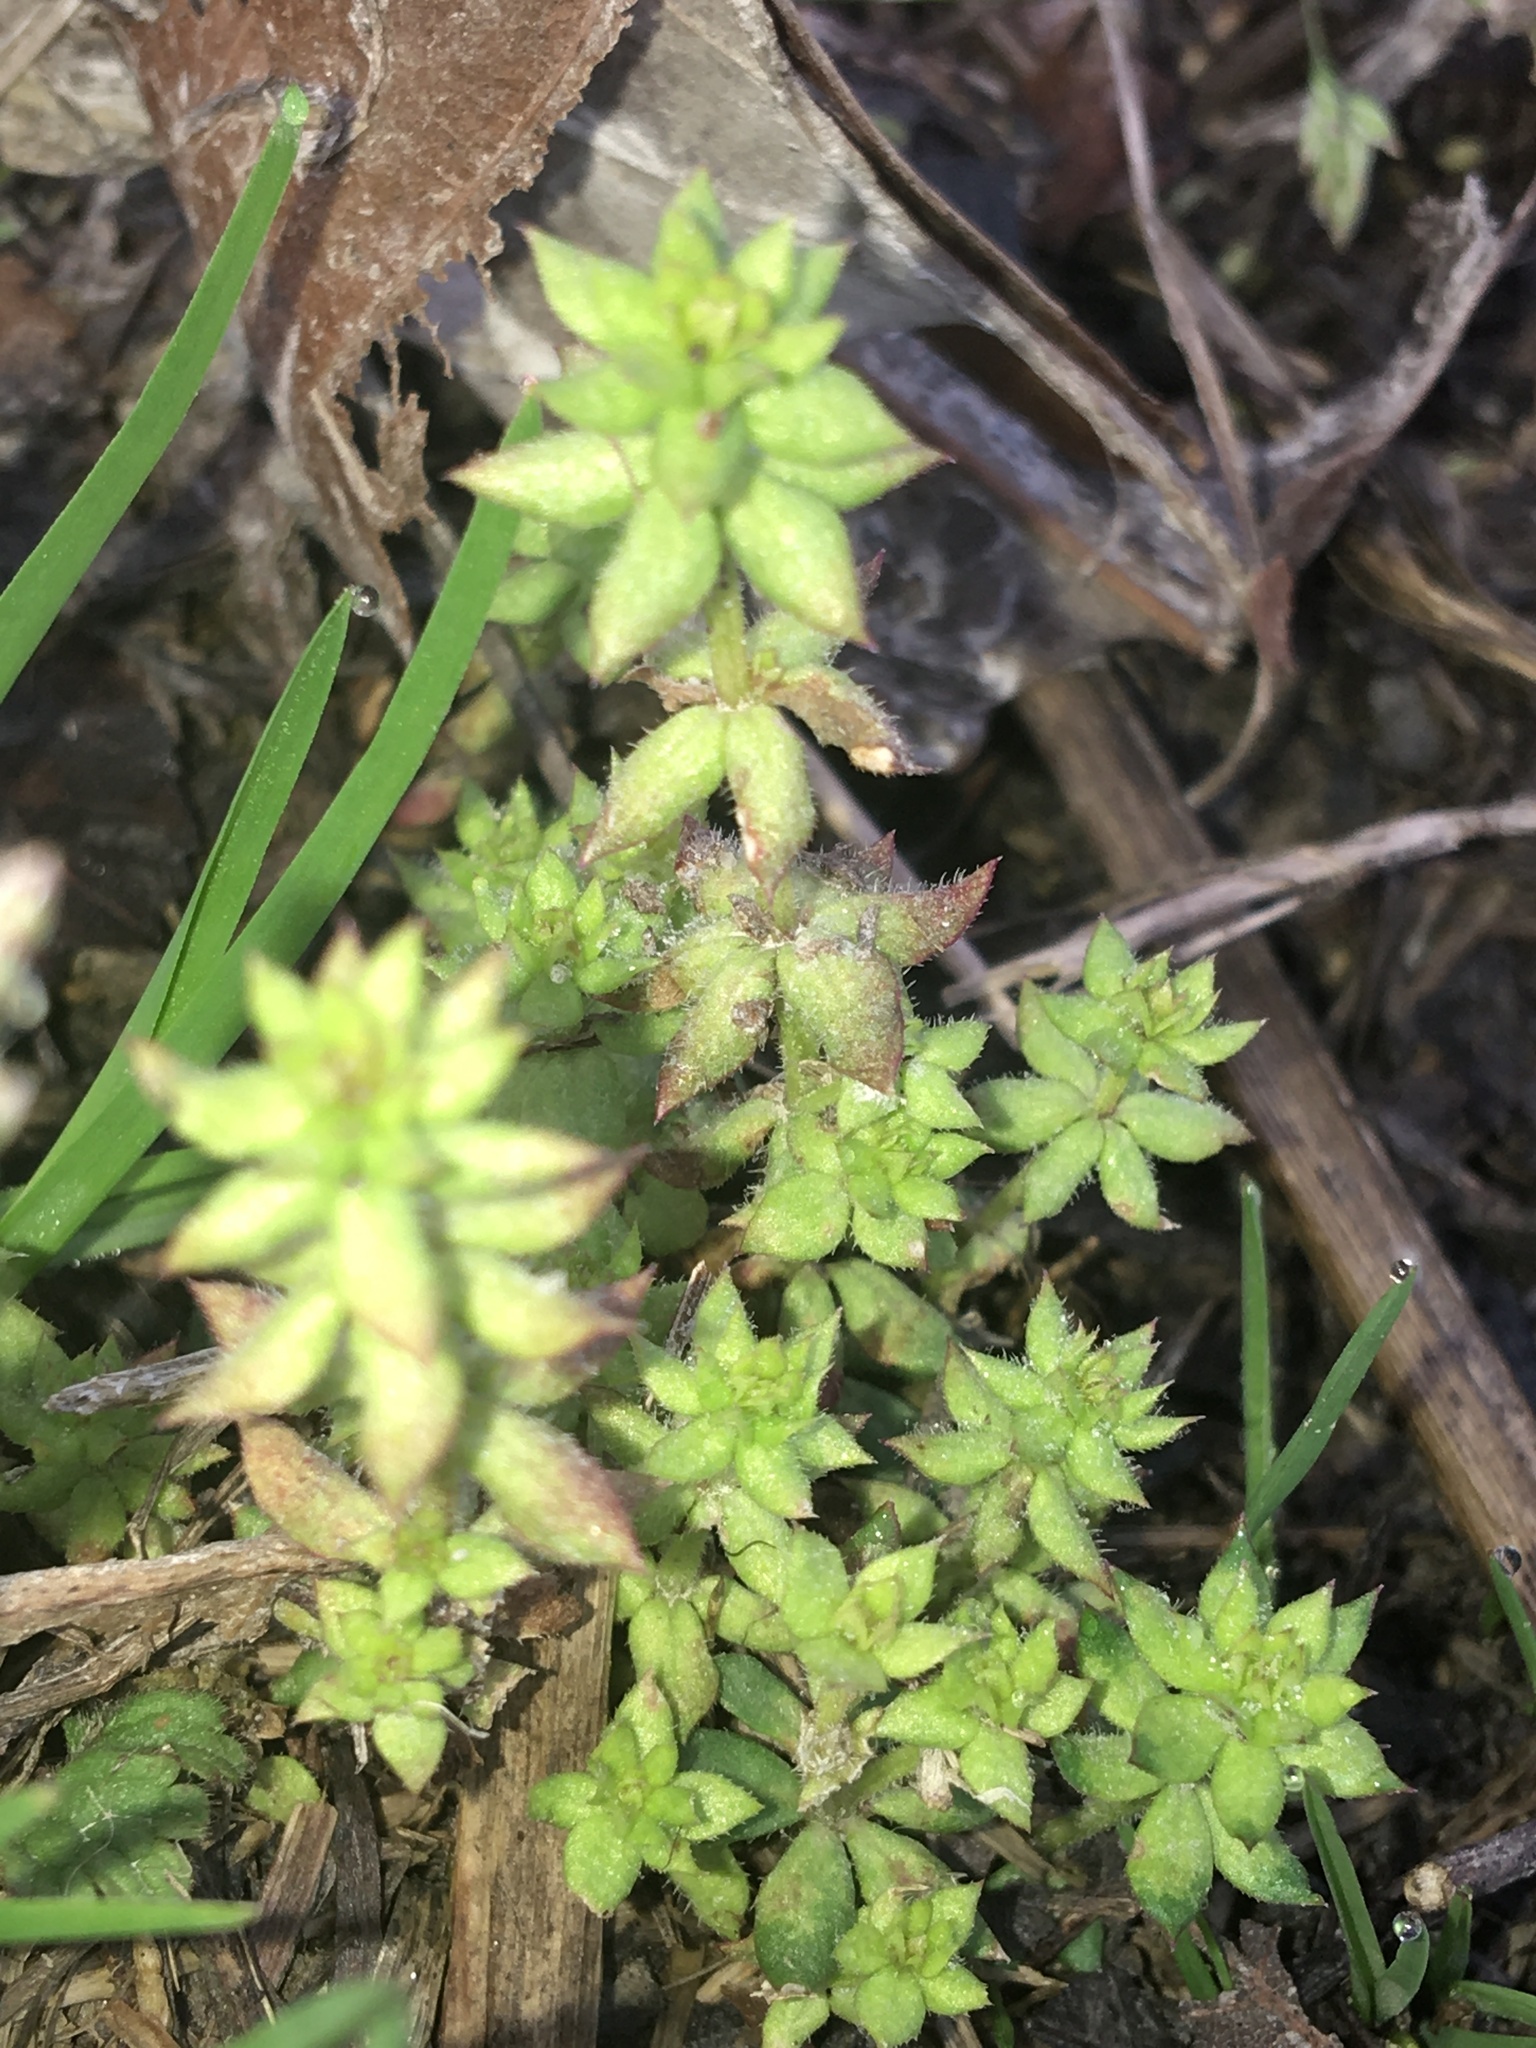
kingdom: Plantae
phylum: Tracheophyta
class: Magnoliopsida
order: Gentianales
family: Rubiaceae
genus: Sherardia
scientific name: Sherardia arvensis
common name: Field madder
